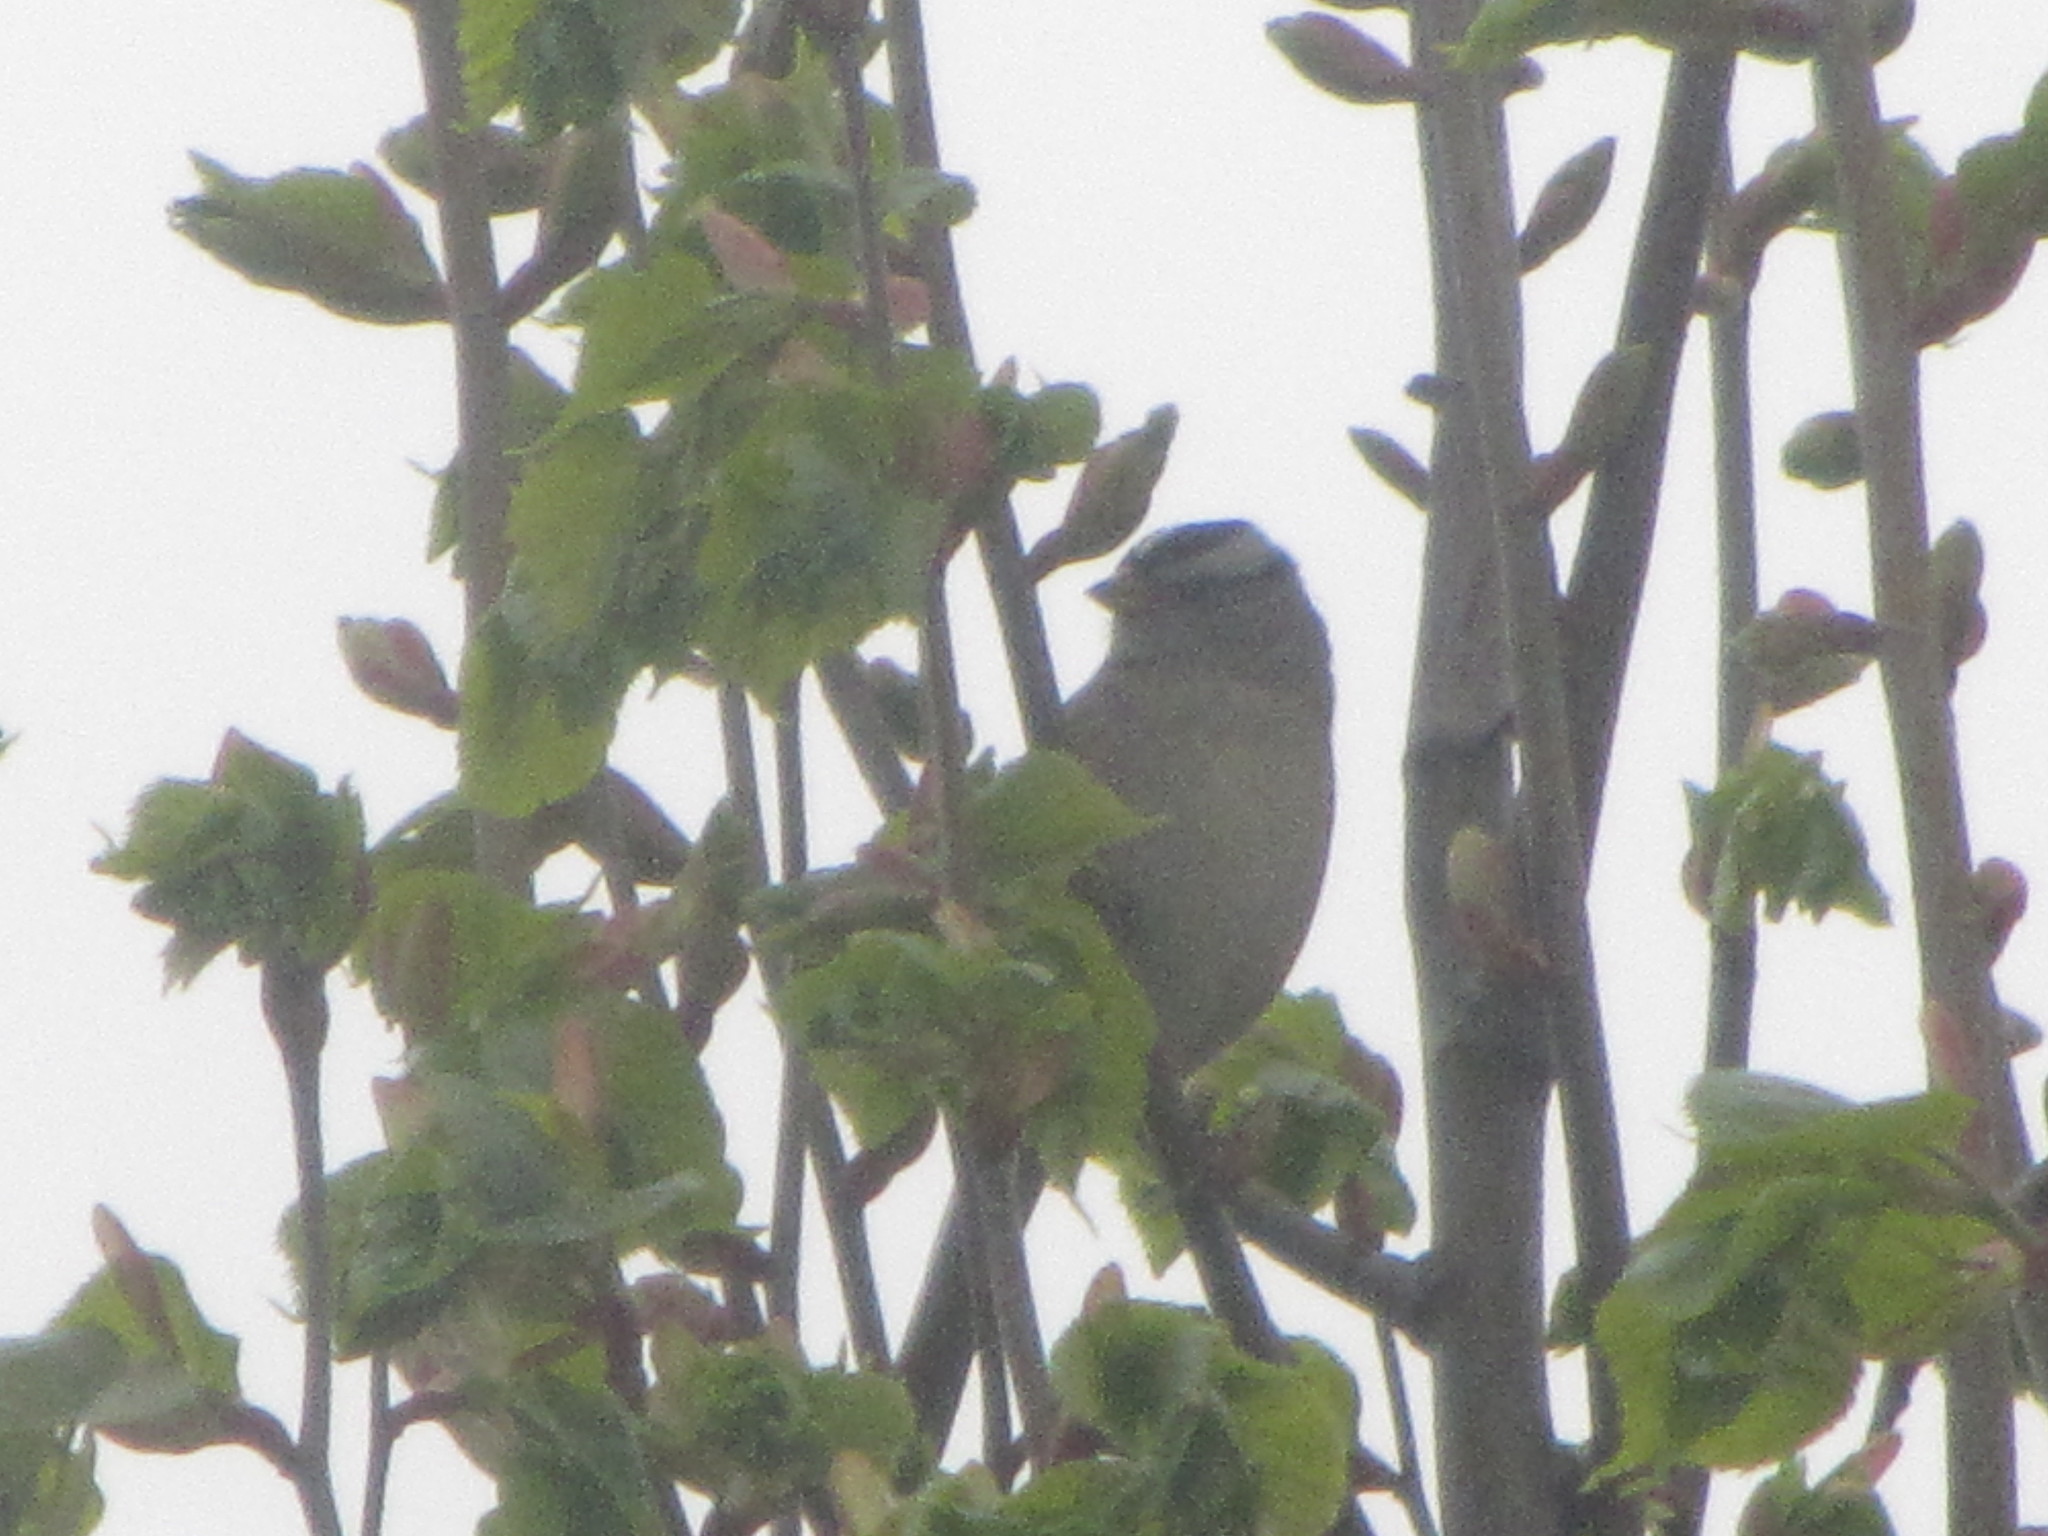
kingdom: Animalia
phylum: Chordata
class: Aves
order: Passeriformes
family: Passerellidae
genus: Zonotrichia
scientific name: Zonotrichia leucophrys
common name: White-crowned sparrow
